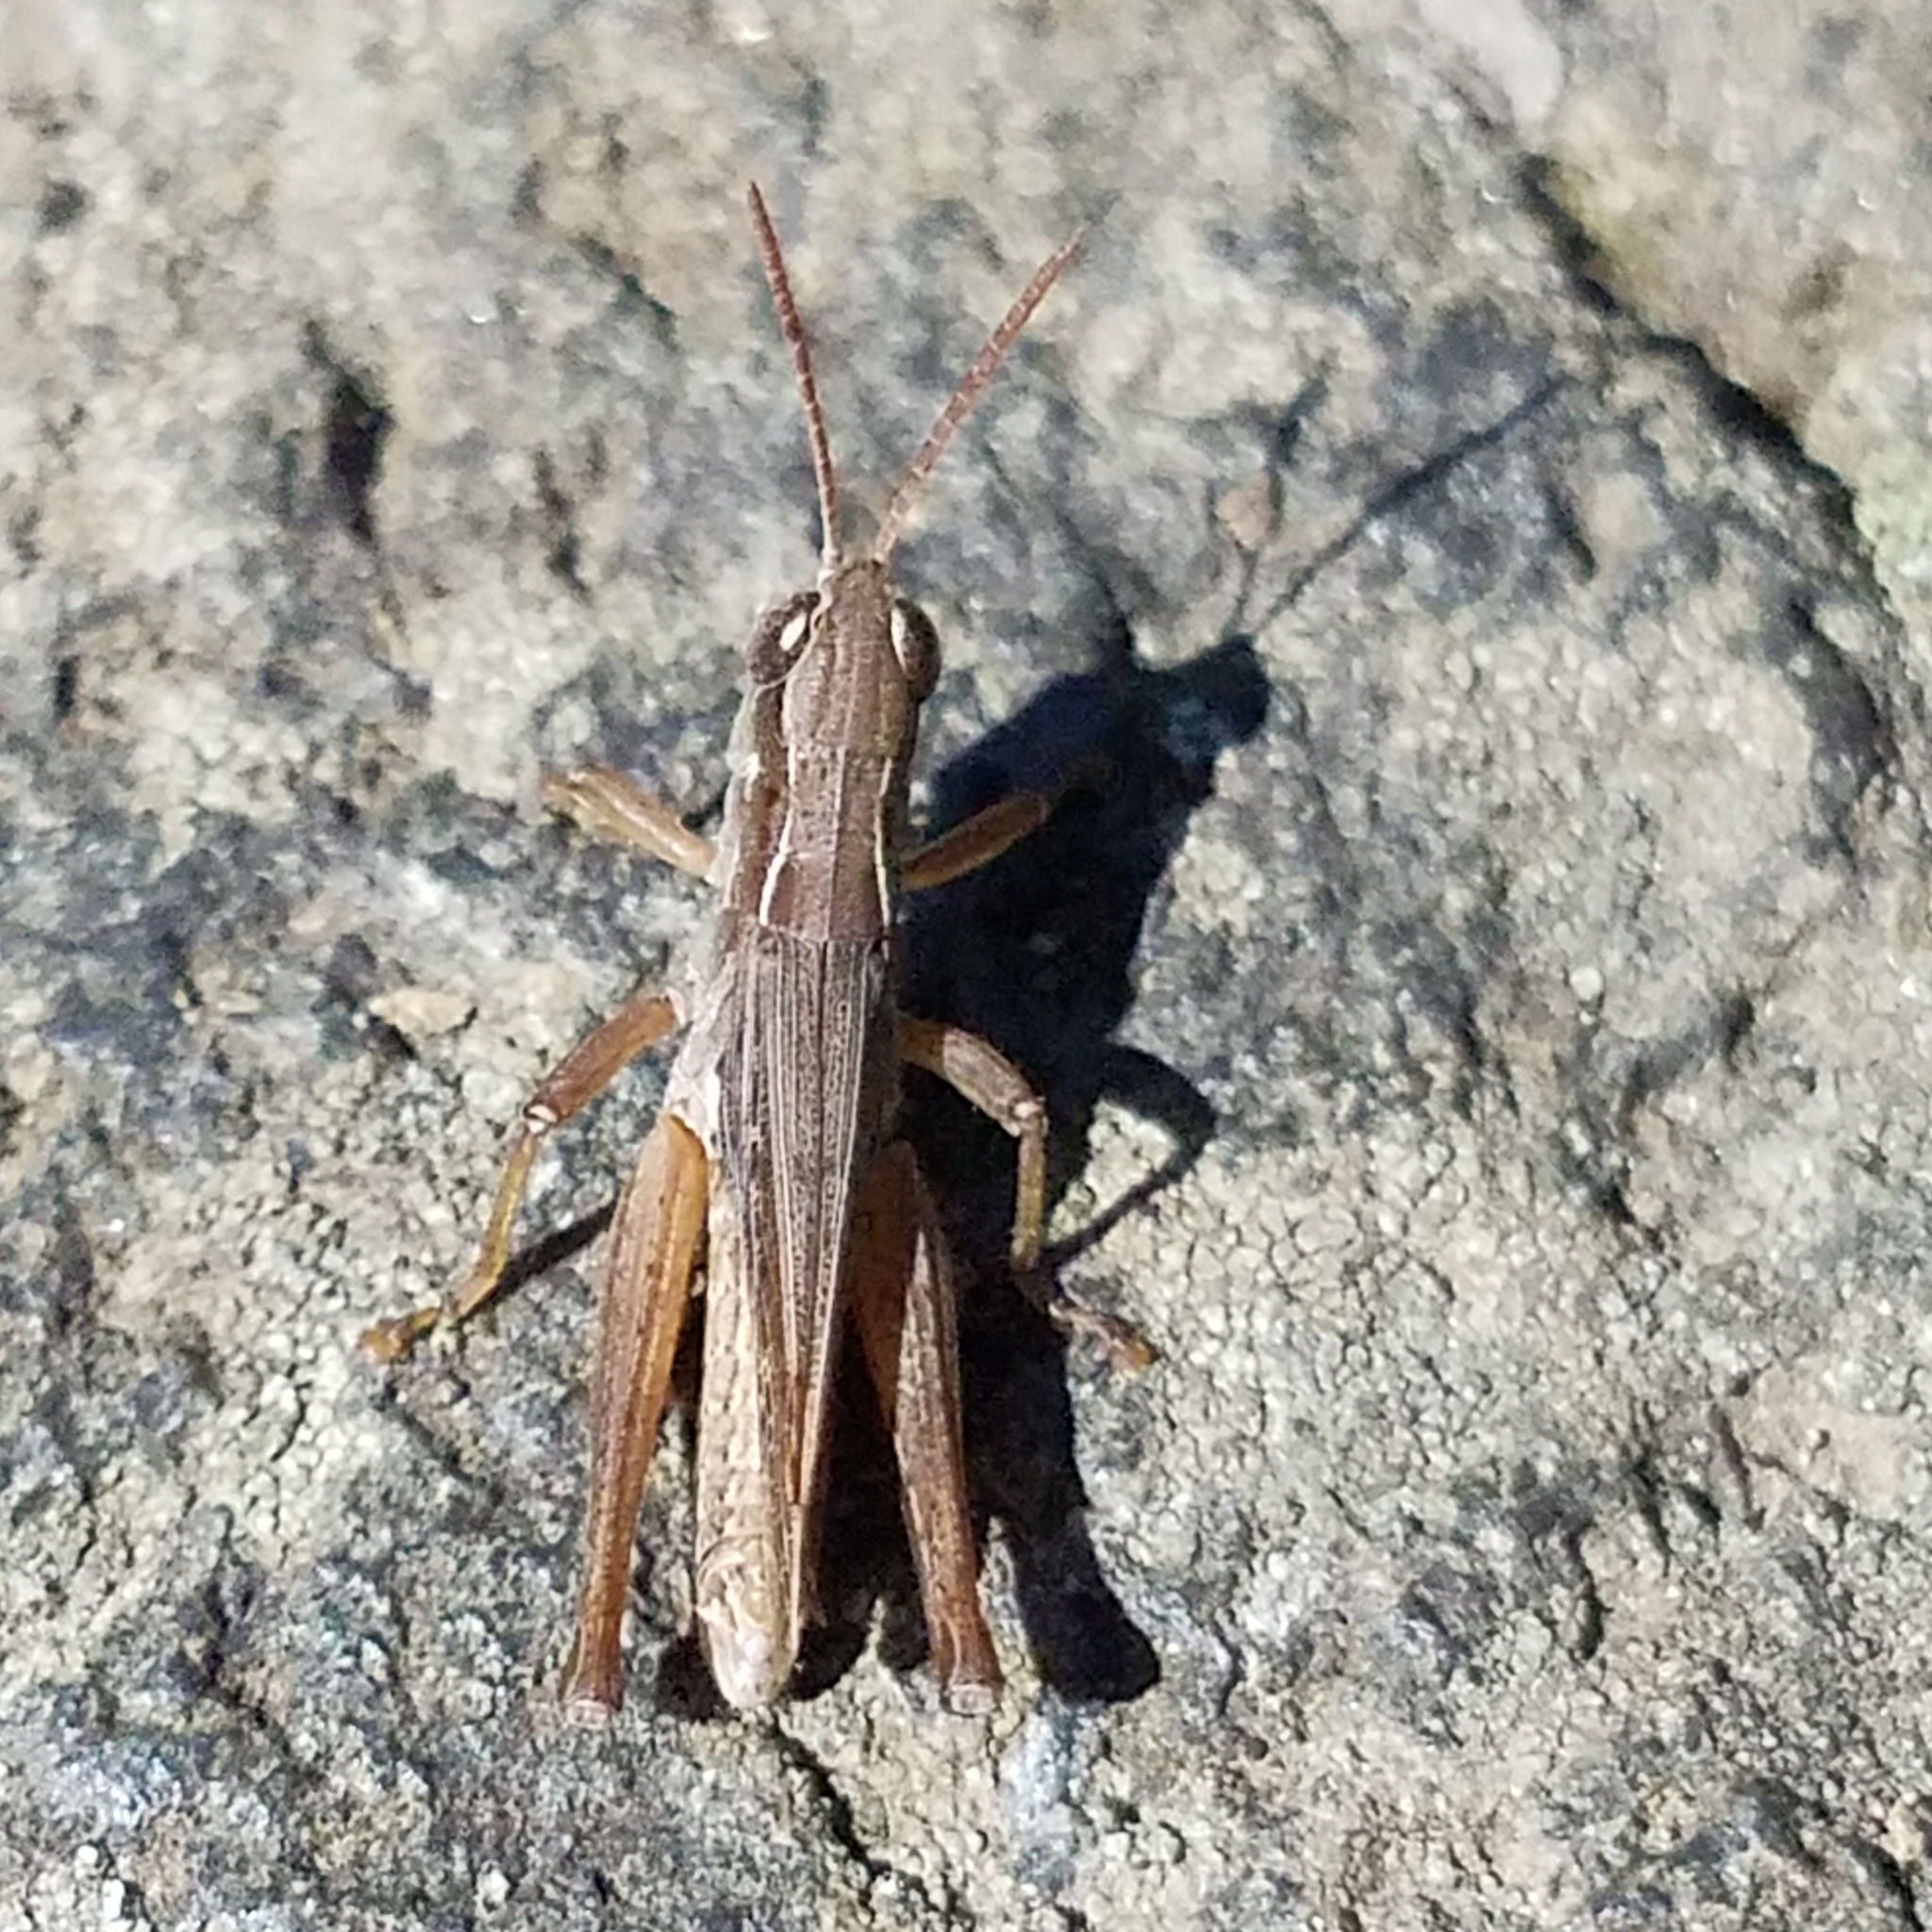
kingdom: Animalia
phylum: Arthropoda
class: Insecta
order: Orthoptera
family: Acrididae
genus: Orphulella
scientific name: Orphulella speciosa
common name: Pasture grasshopper
